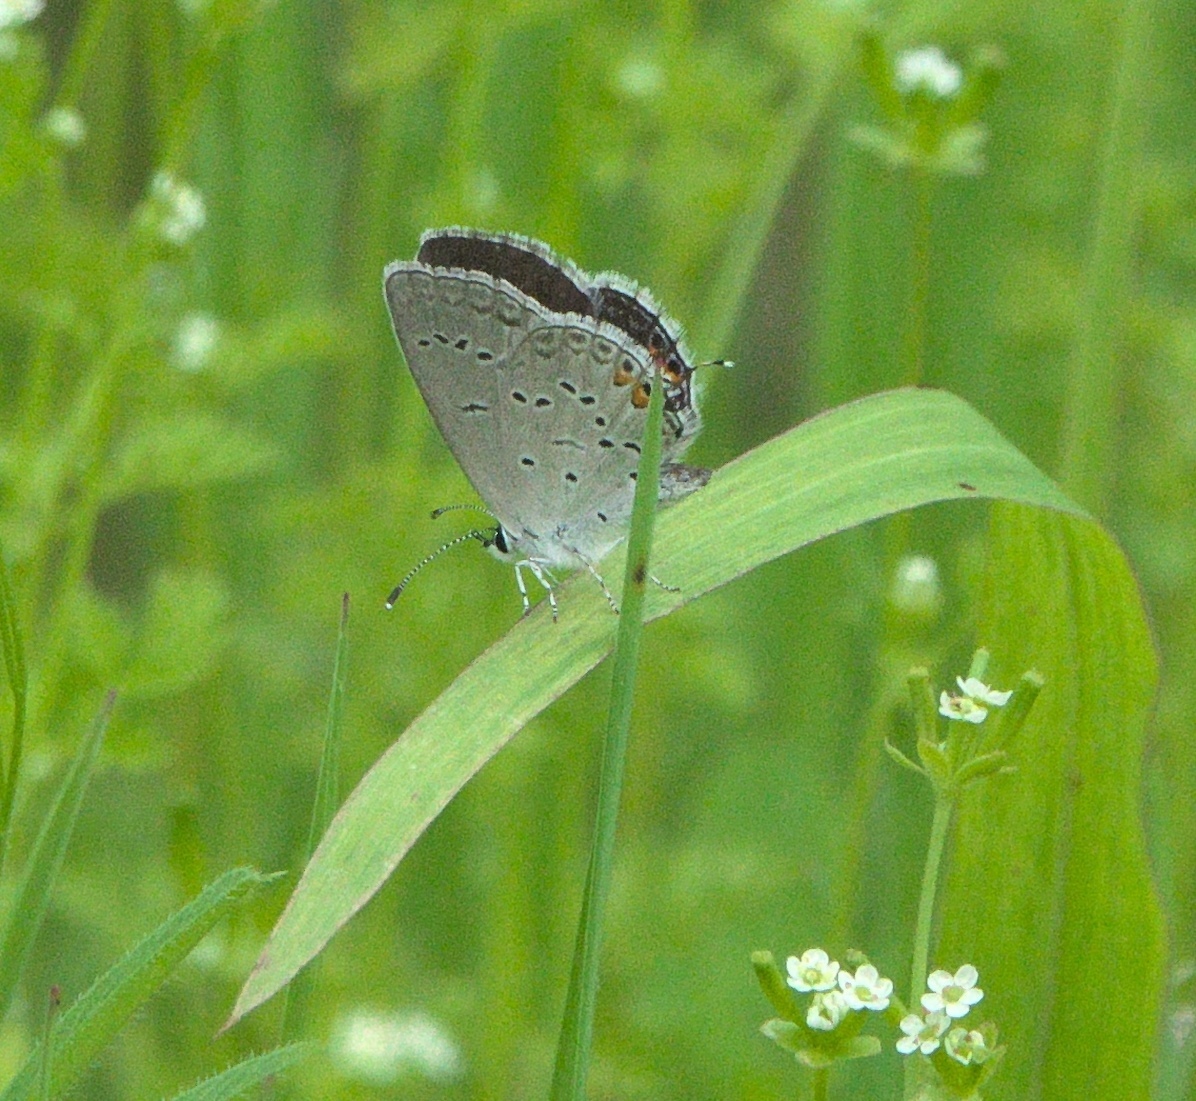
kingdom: Animalia
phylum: Arthropoda
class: Insecta
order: Lepidoptera
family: Lycaenidae
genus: Elkalyce
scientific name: Elkalyce comyntas
